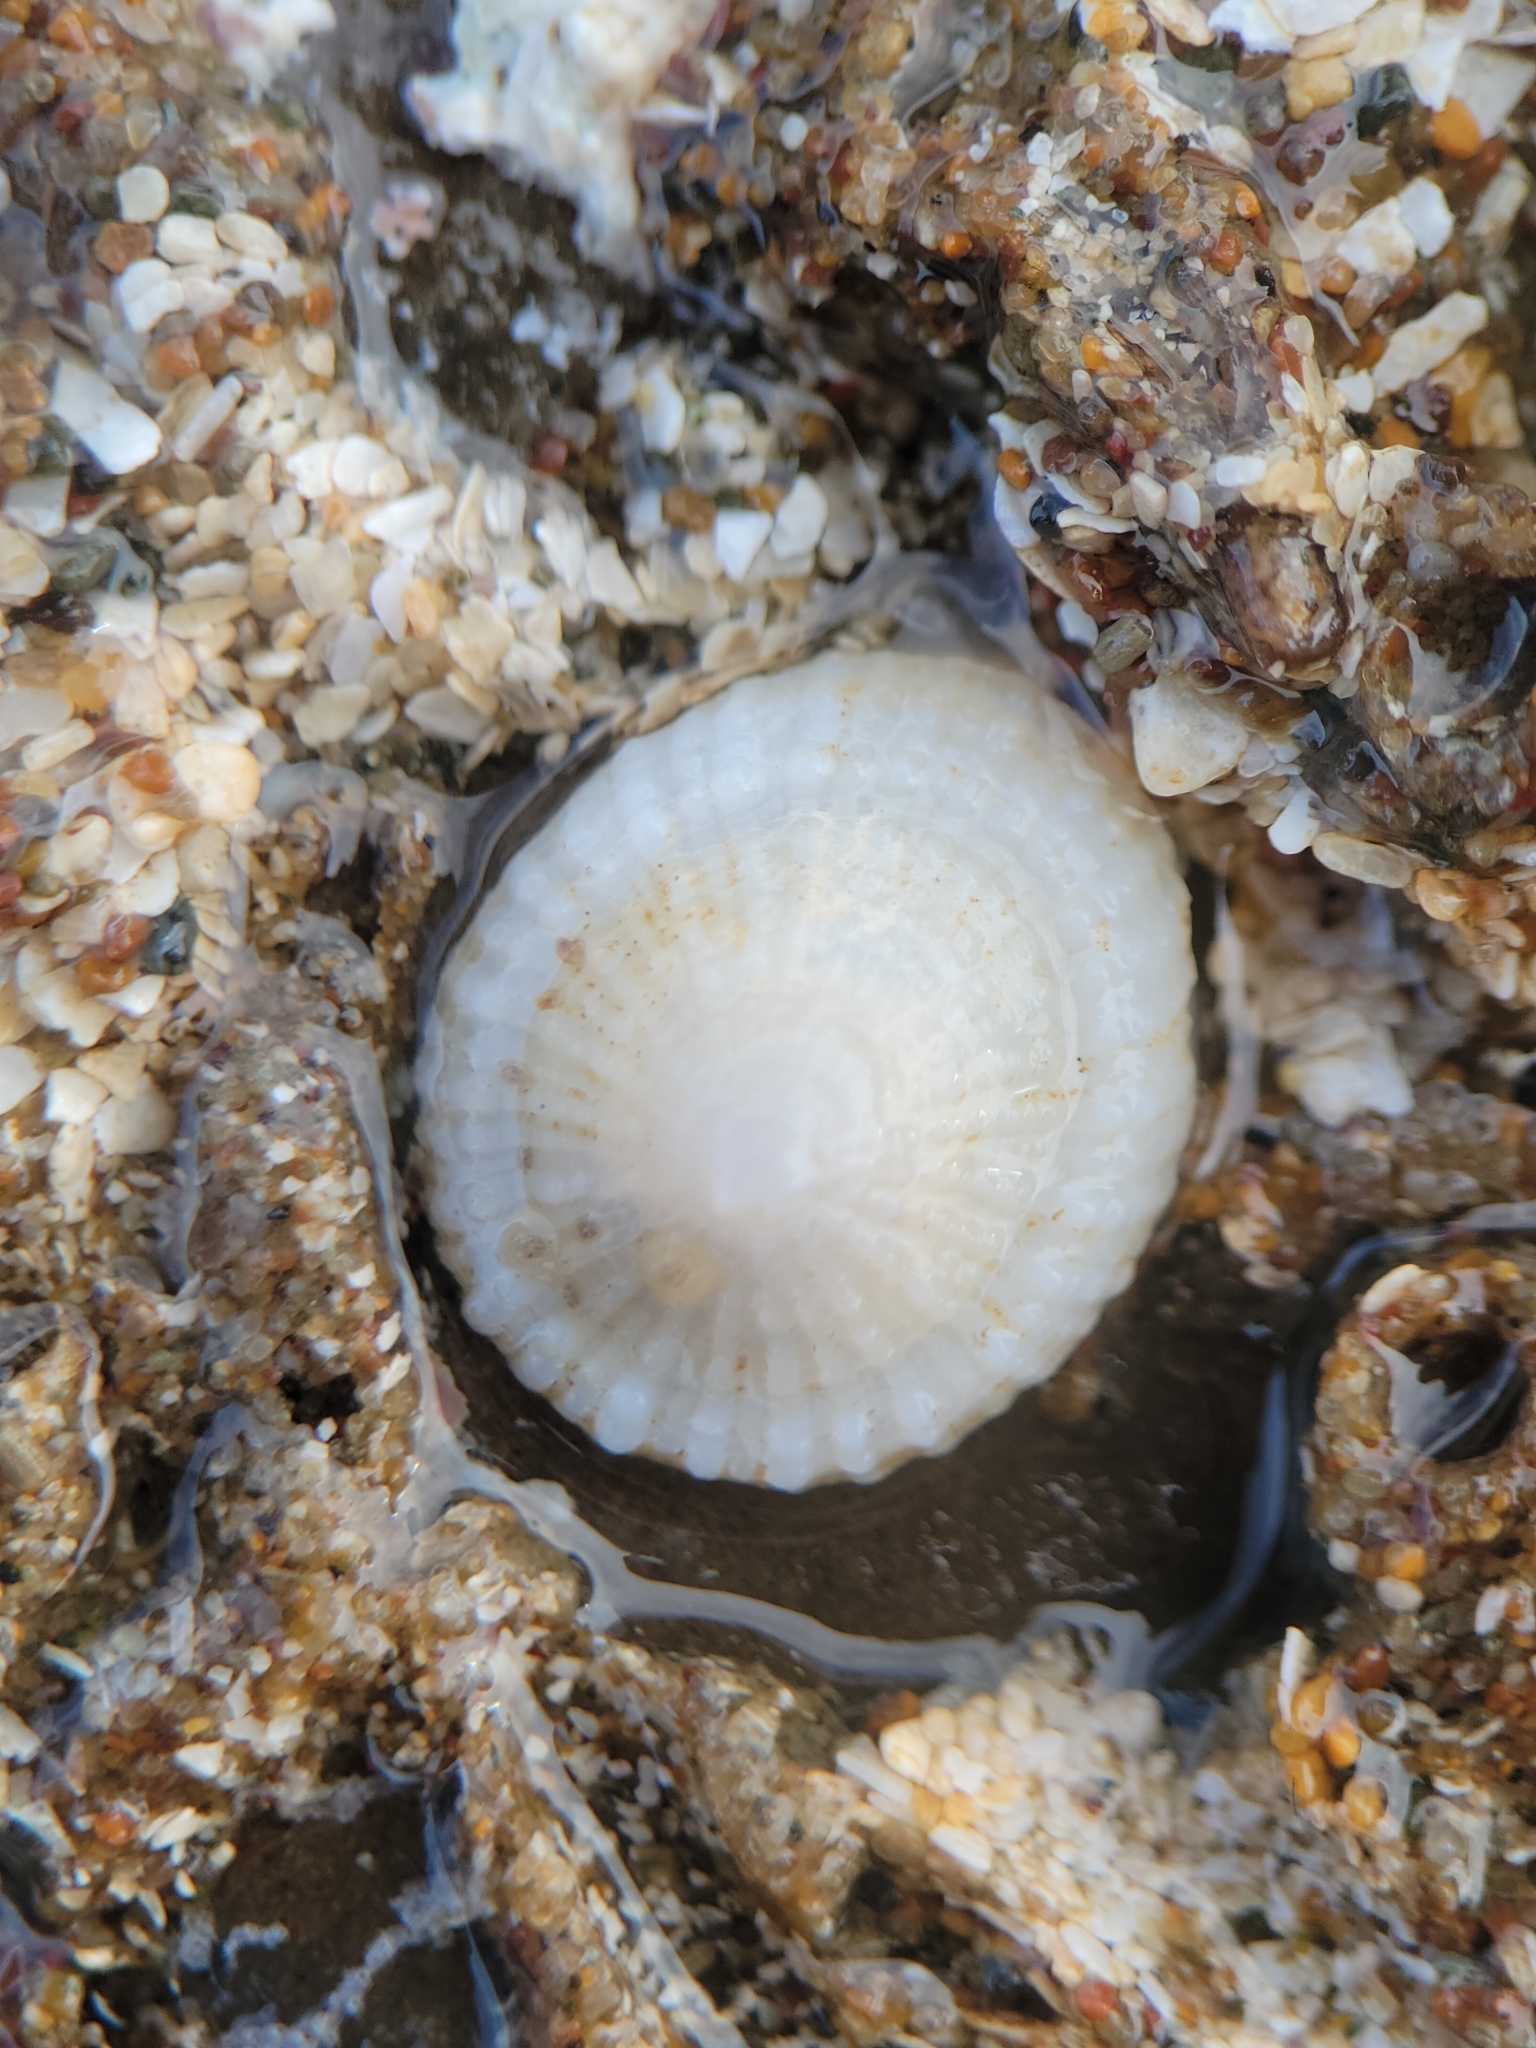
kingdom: Animalia
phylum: Mollusca
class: Gastropoda
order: Ellobiida
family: Trimusculidae
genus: Trimusculus
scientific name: Trimusculus reticulatus
